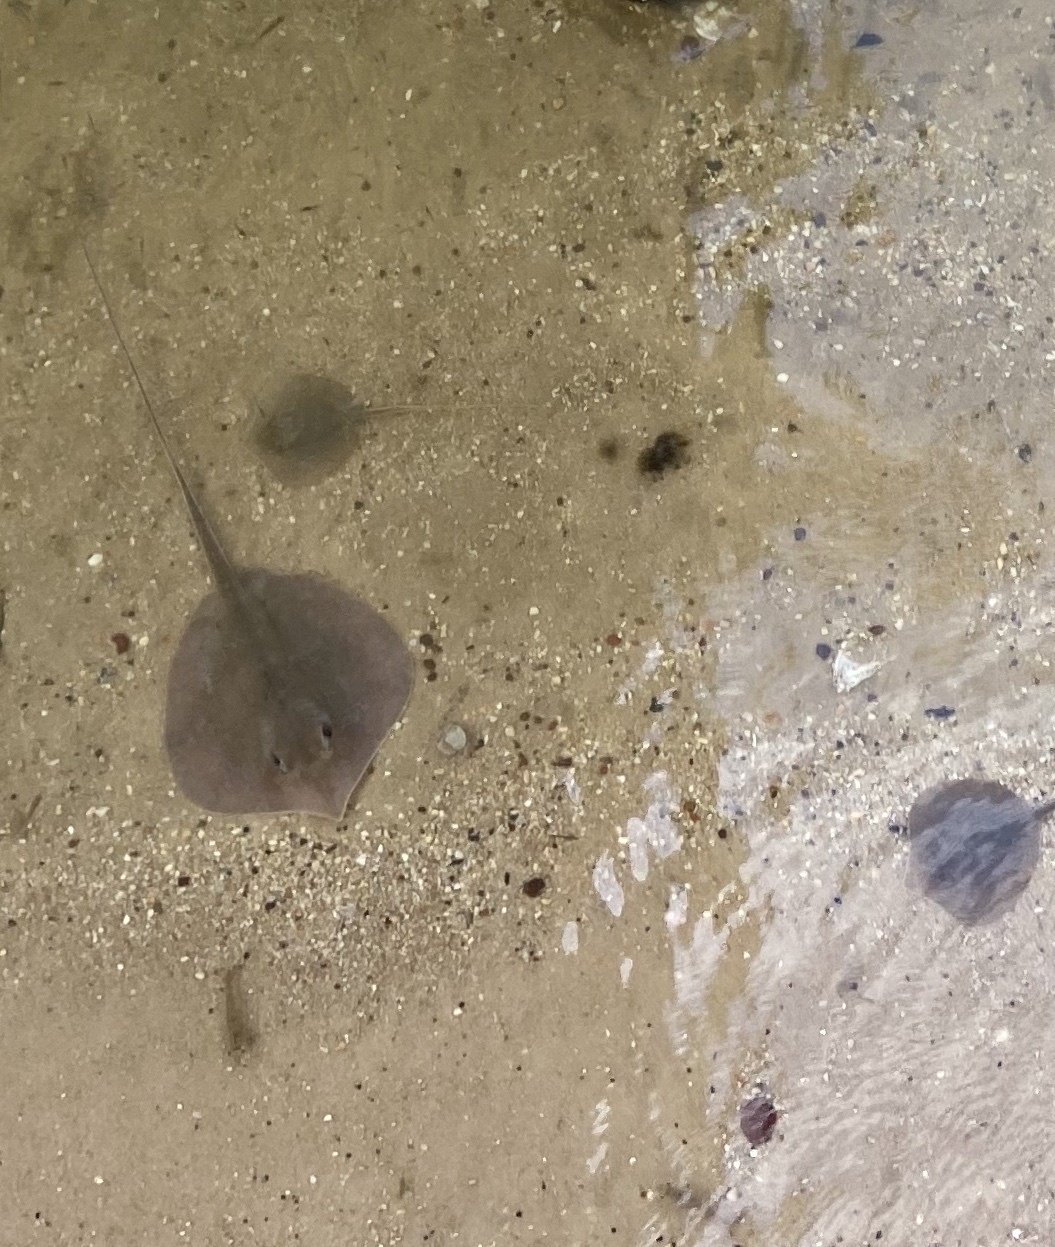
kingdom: Animalia
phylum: Chordata
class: Elasmobranchii
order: Myliobatiformes
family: Dasyatidae
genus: Hypanus
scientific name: Hypanus sabinus
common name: Atlantic stingray
